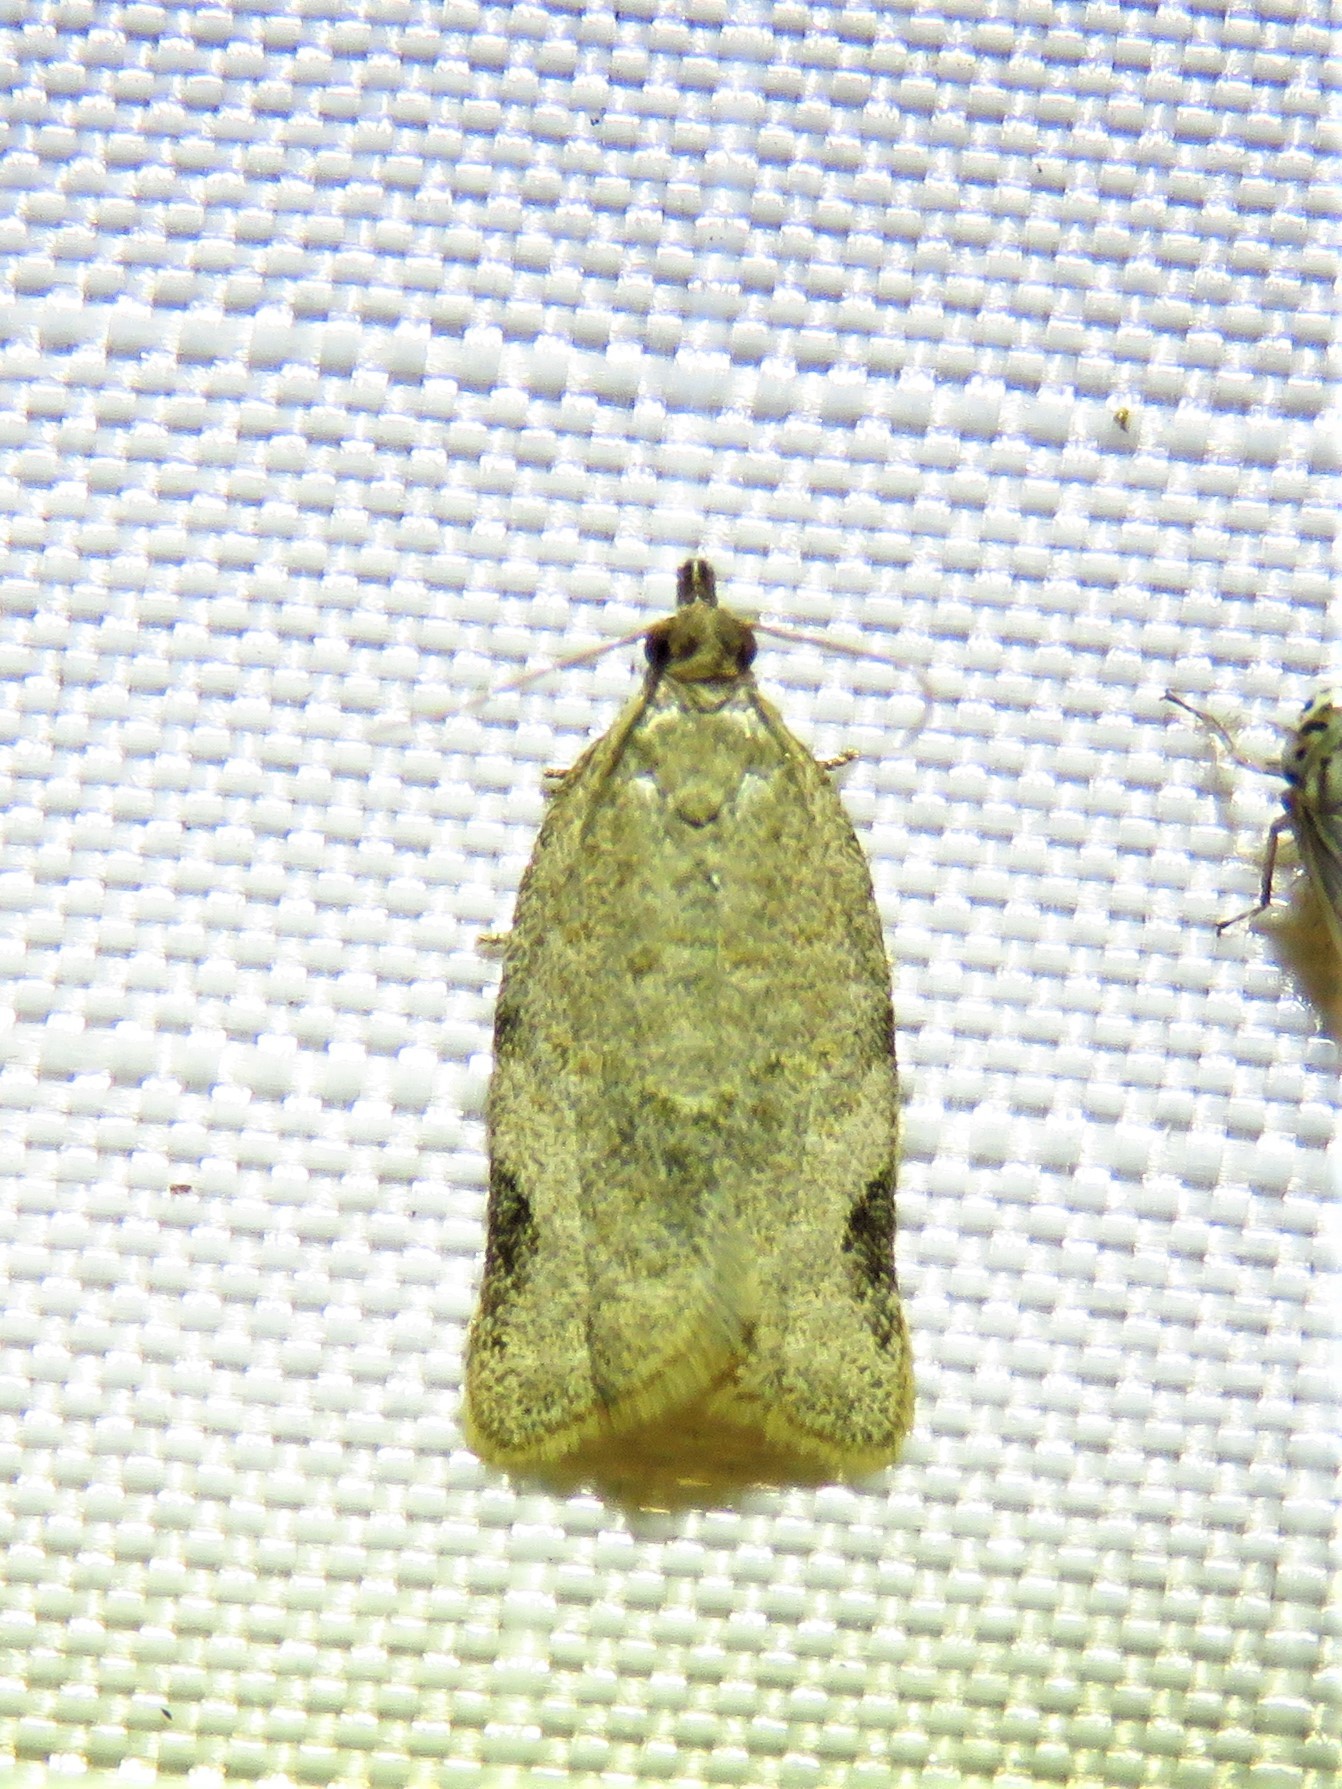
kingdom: Animalia
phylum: Arthropoda
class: Insecta
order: Lepidoptera
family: Tortricidae
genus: Clepsis
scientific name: Clepsis virescana
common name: Greenish apple moth
